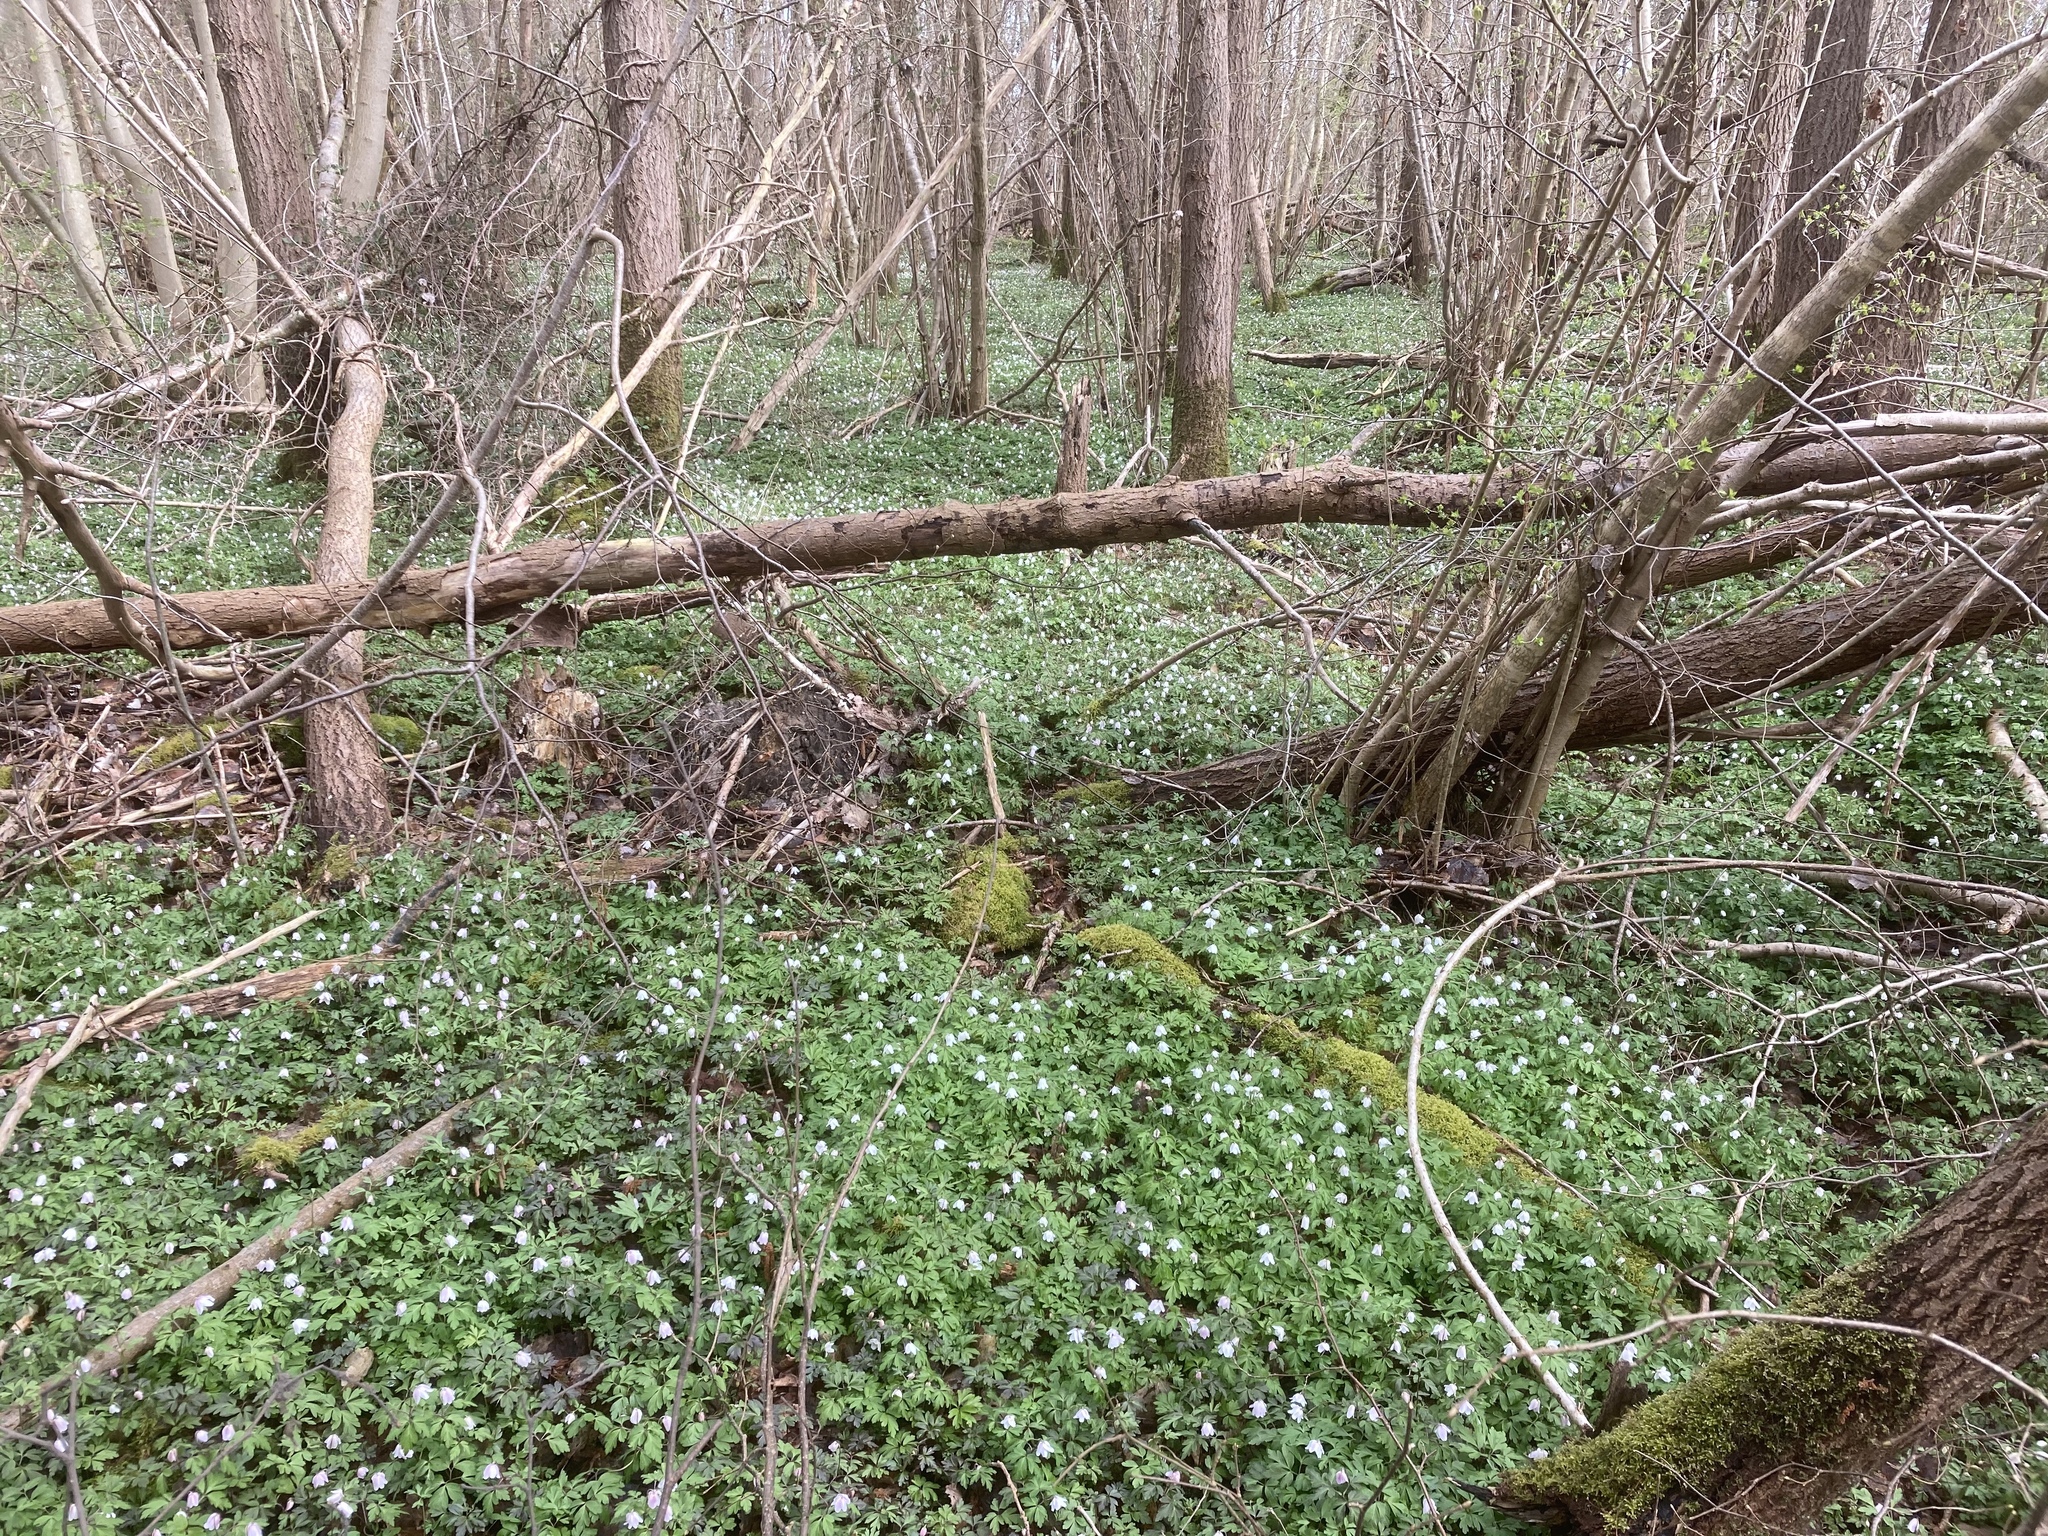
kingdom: Plantae
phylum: Tracheophyta
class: Magnoliopsida
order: Ranunculales
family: Ranunculaceae
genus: Anemone
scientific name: Anemone nemorosa
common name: Wood anemone
